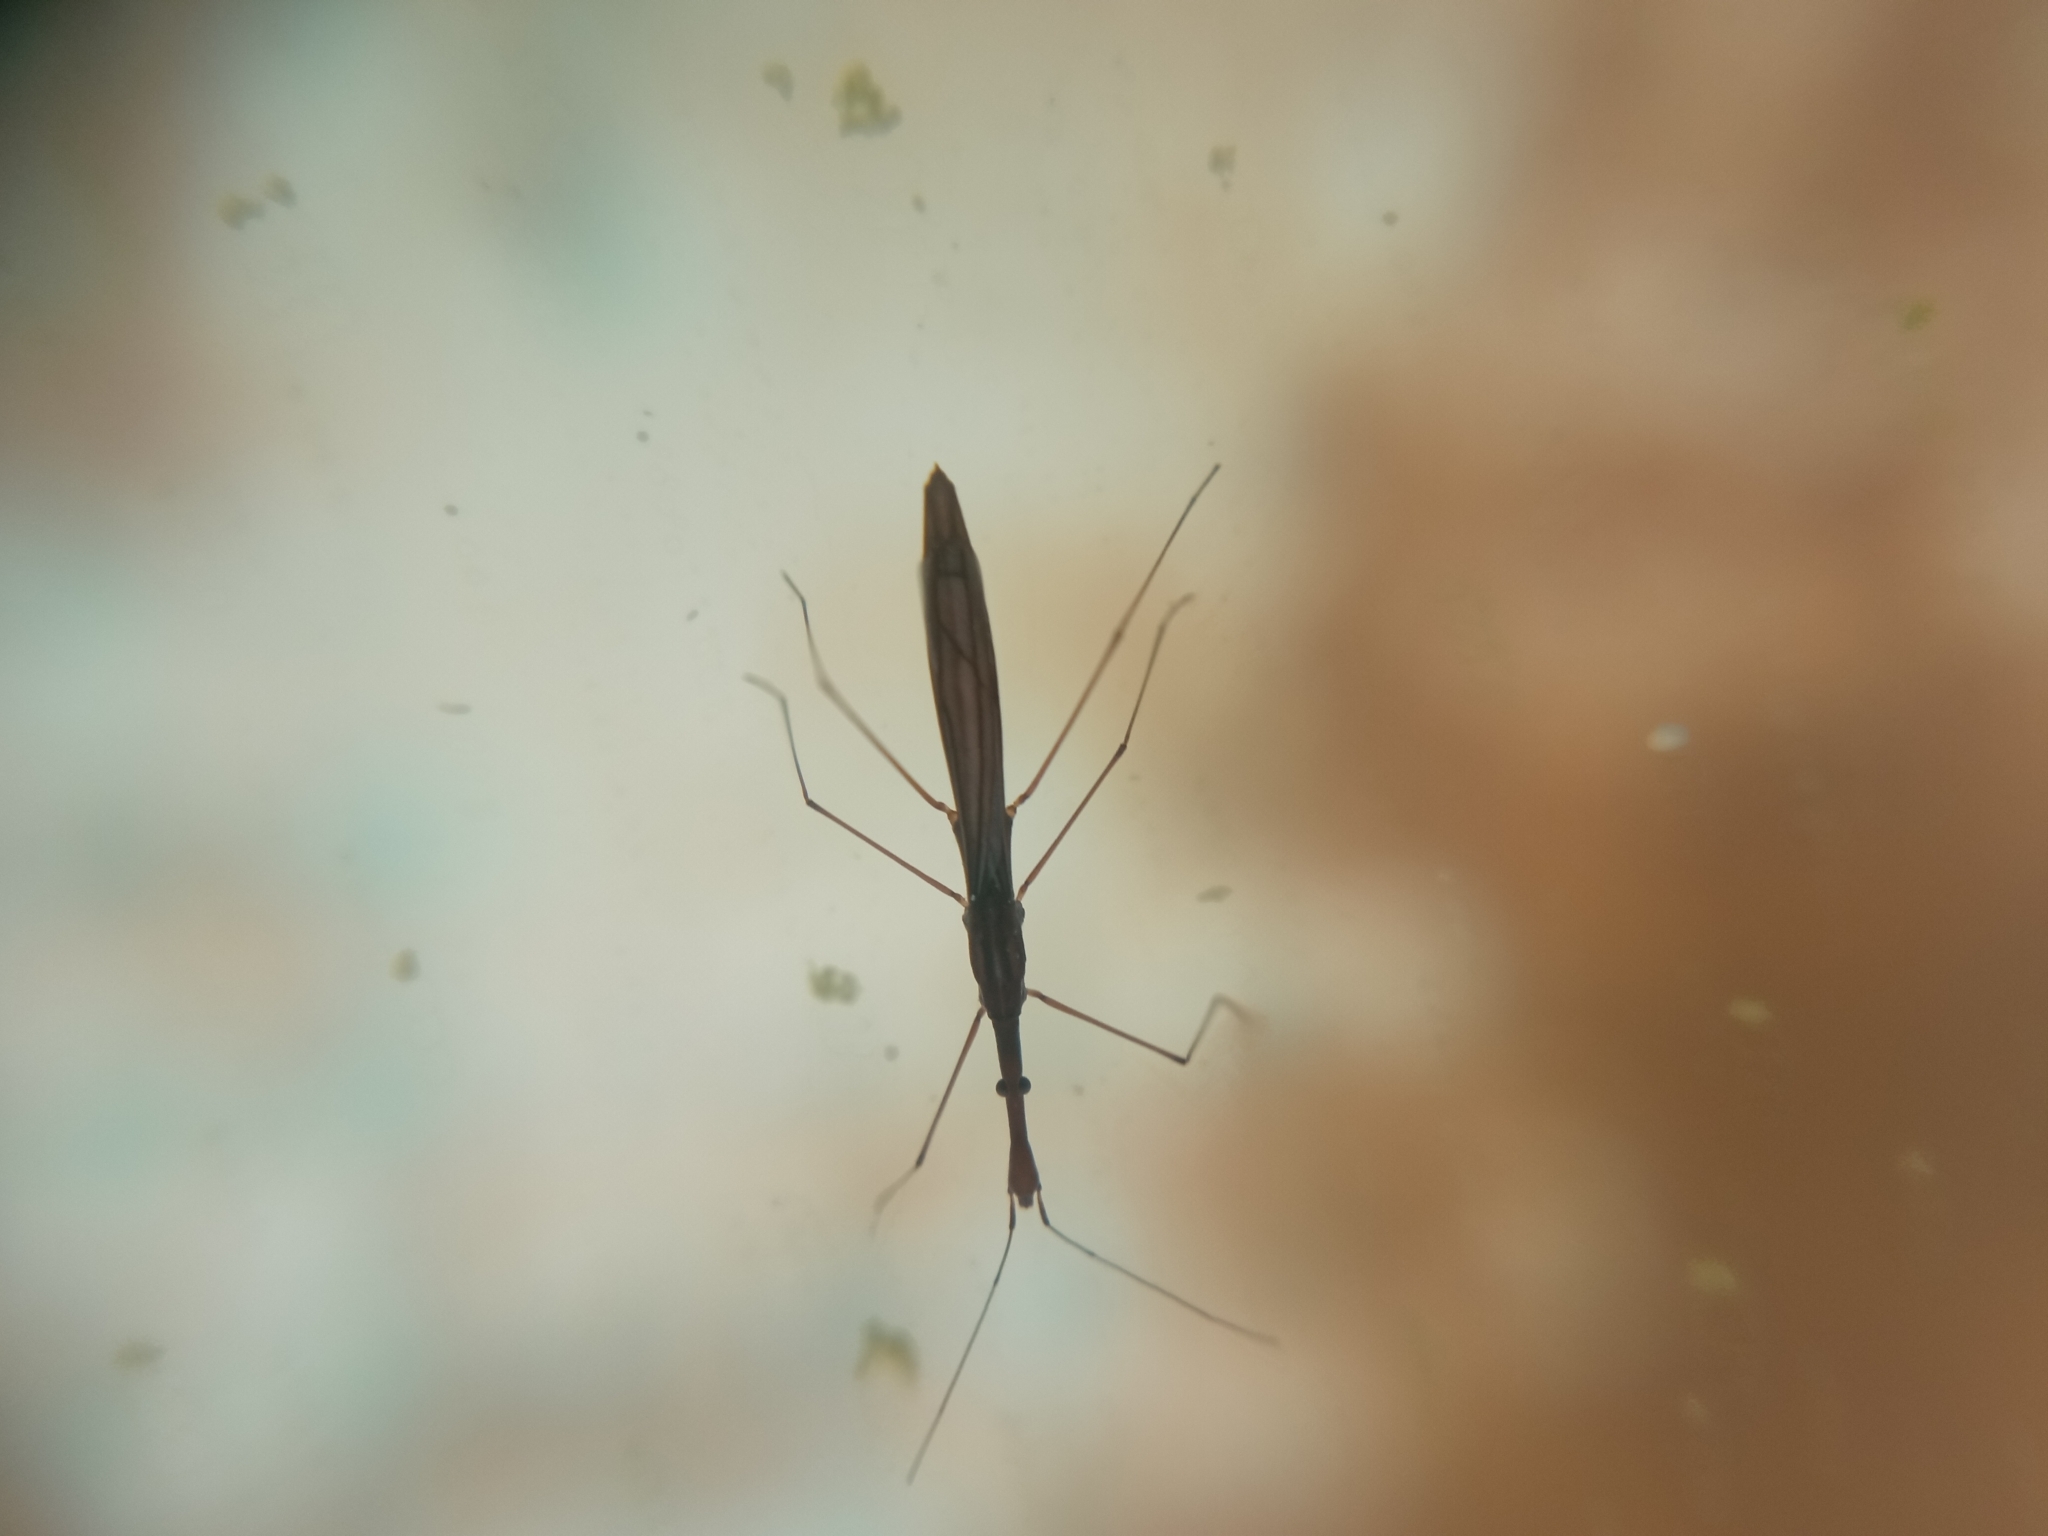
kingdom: Animalia
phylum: Arthropoda
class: Insecta
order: Hemiptera
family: Hydrometridae
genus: Hydrometra
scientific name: Hydrometra stagnorum
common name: Water measurer
